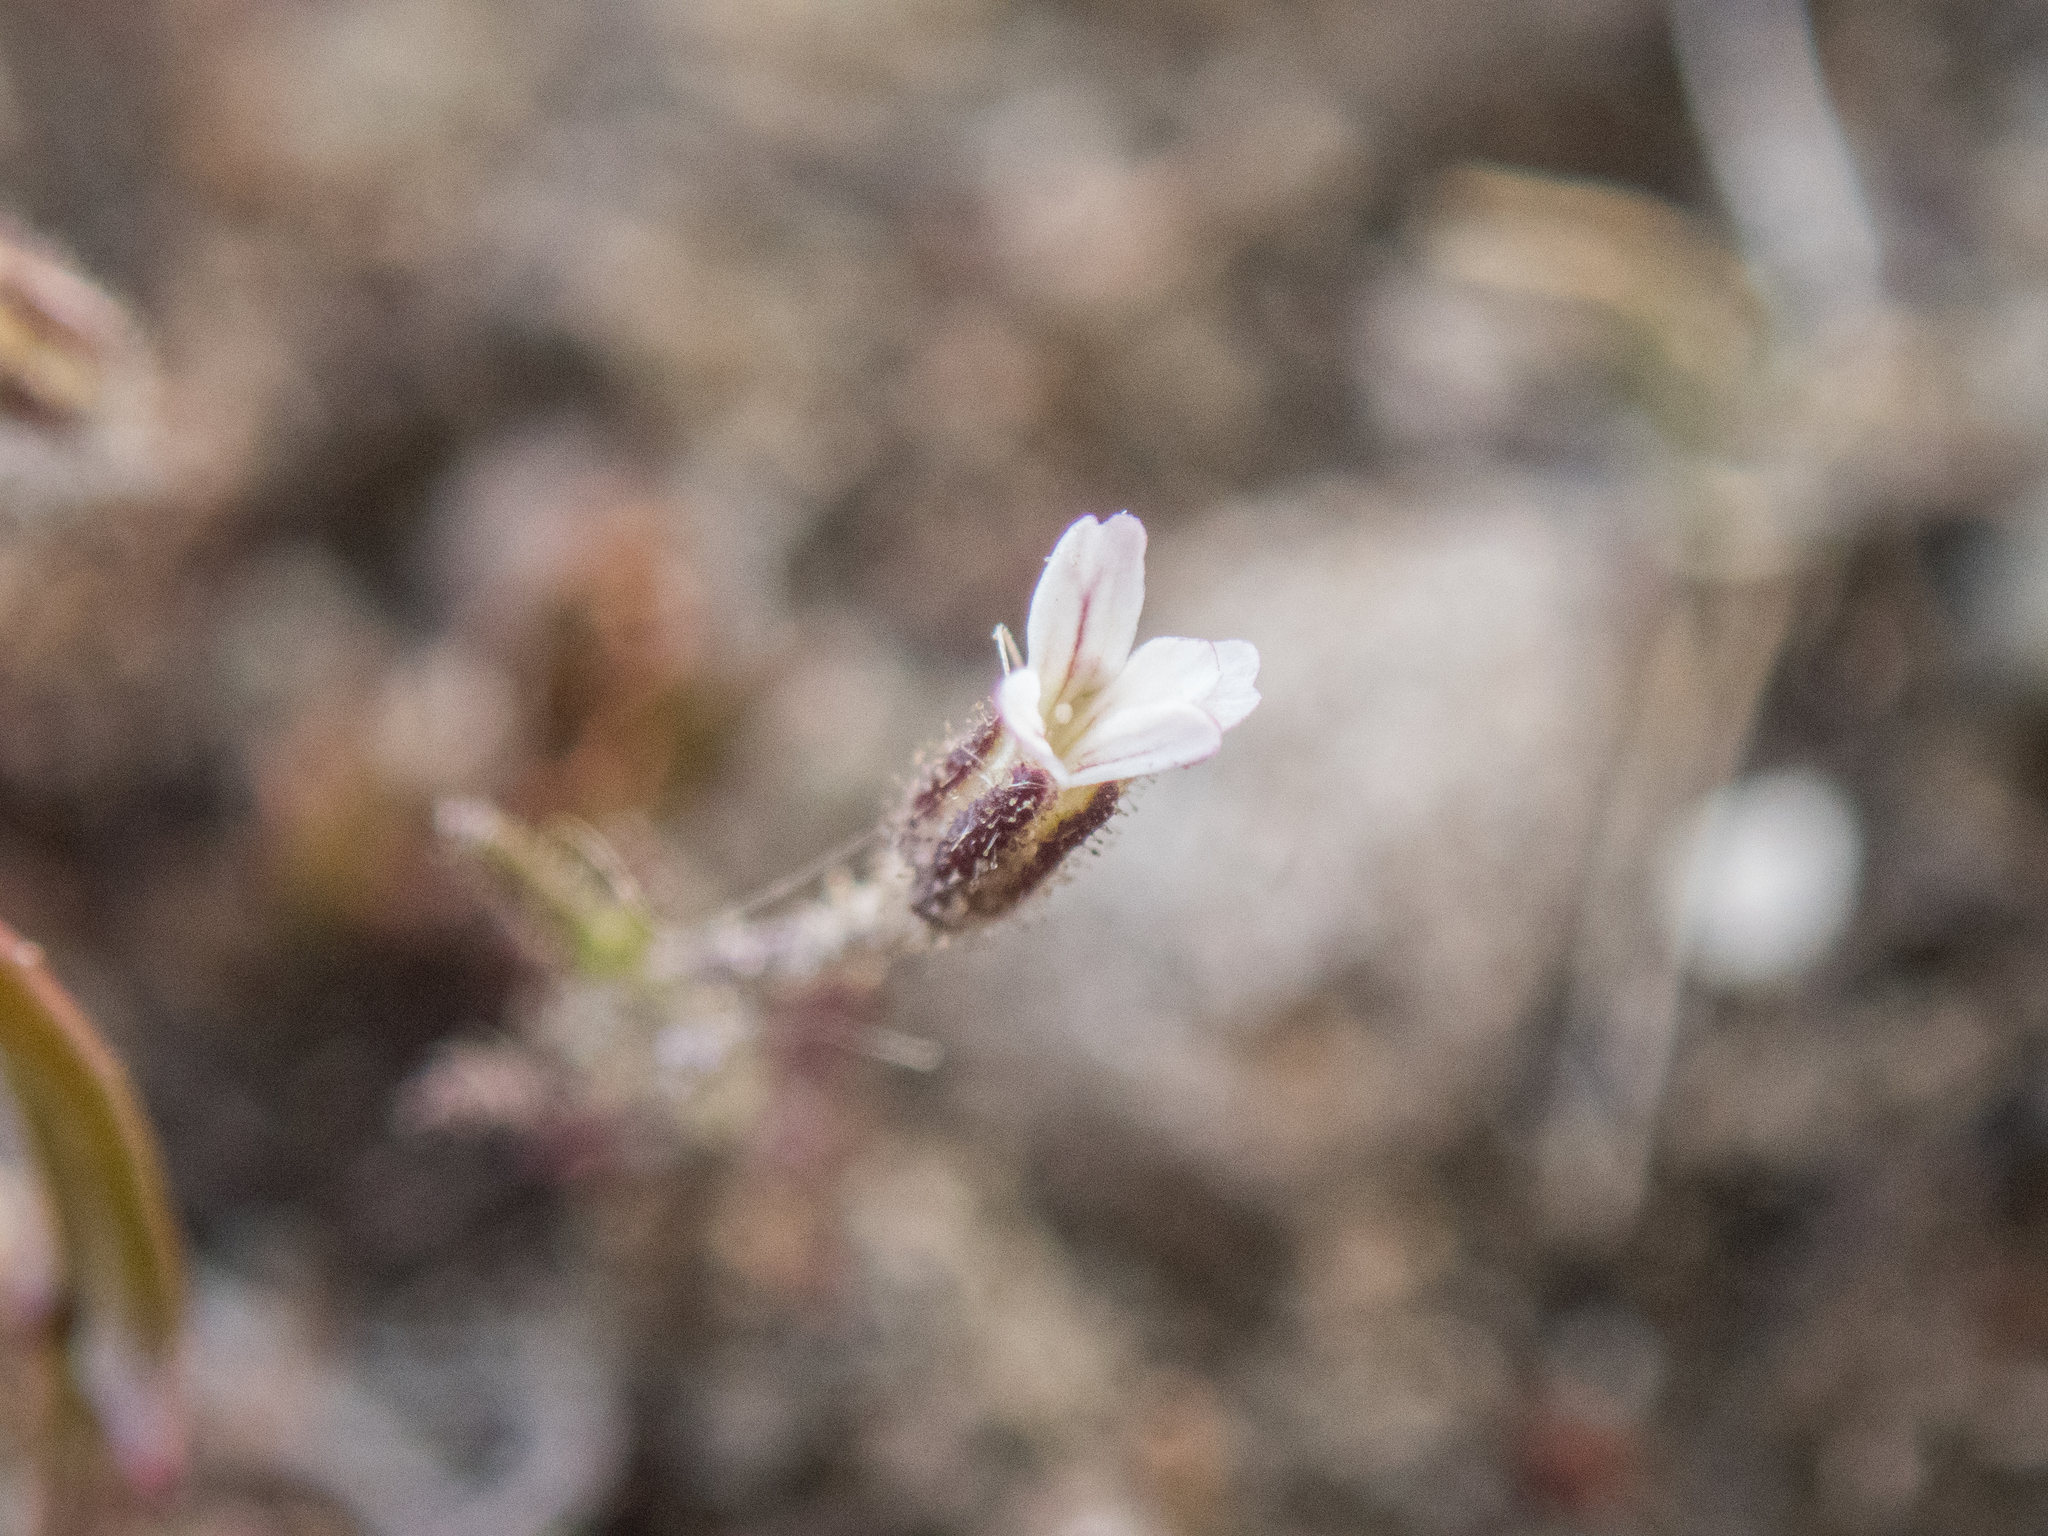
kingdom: Plantae
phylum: Tracheophyta
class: Magnoliopsida
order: Caryophyllales
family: Caryophyllaceae
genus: Gypsophila
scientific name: Gypsophila australis
